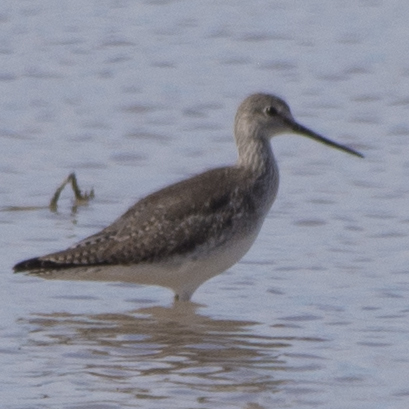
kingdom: Animalia
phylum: Chordata
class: Aves
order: Charadriiformes
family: Scolopacidae
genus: Tringa
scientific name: Tringa melanoleuca
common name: Greater yellowlegs
